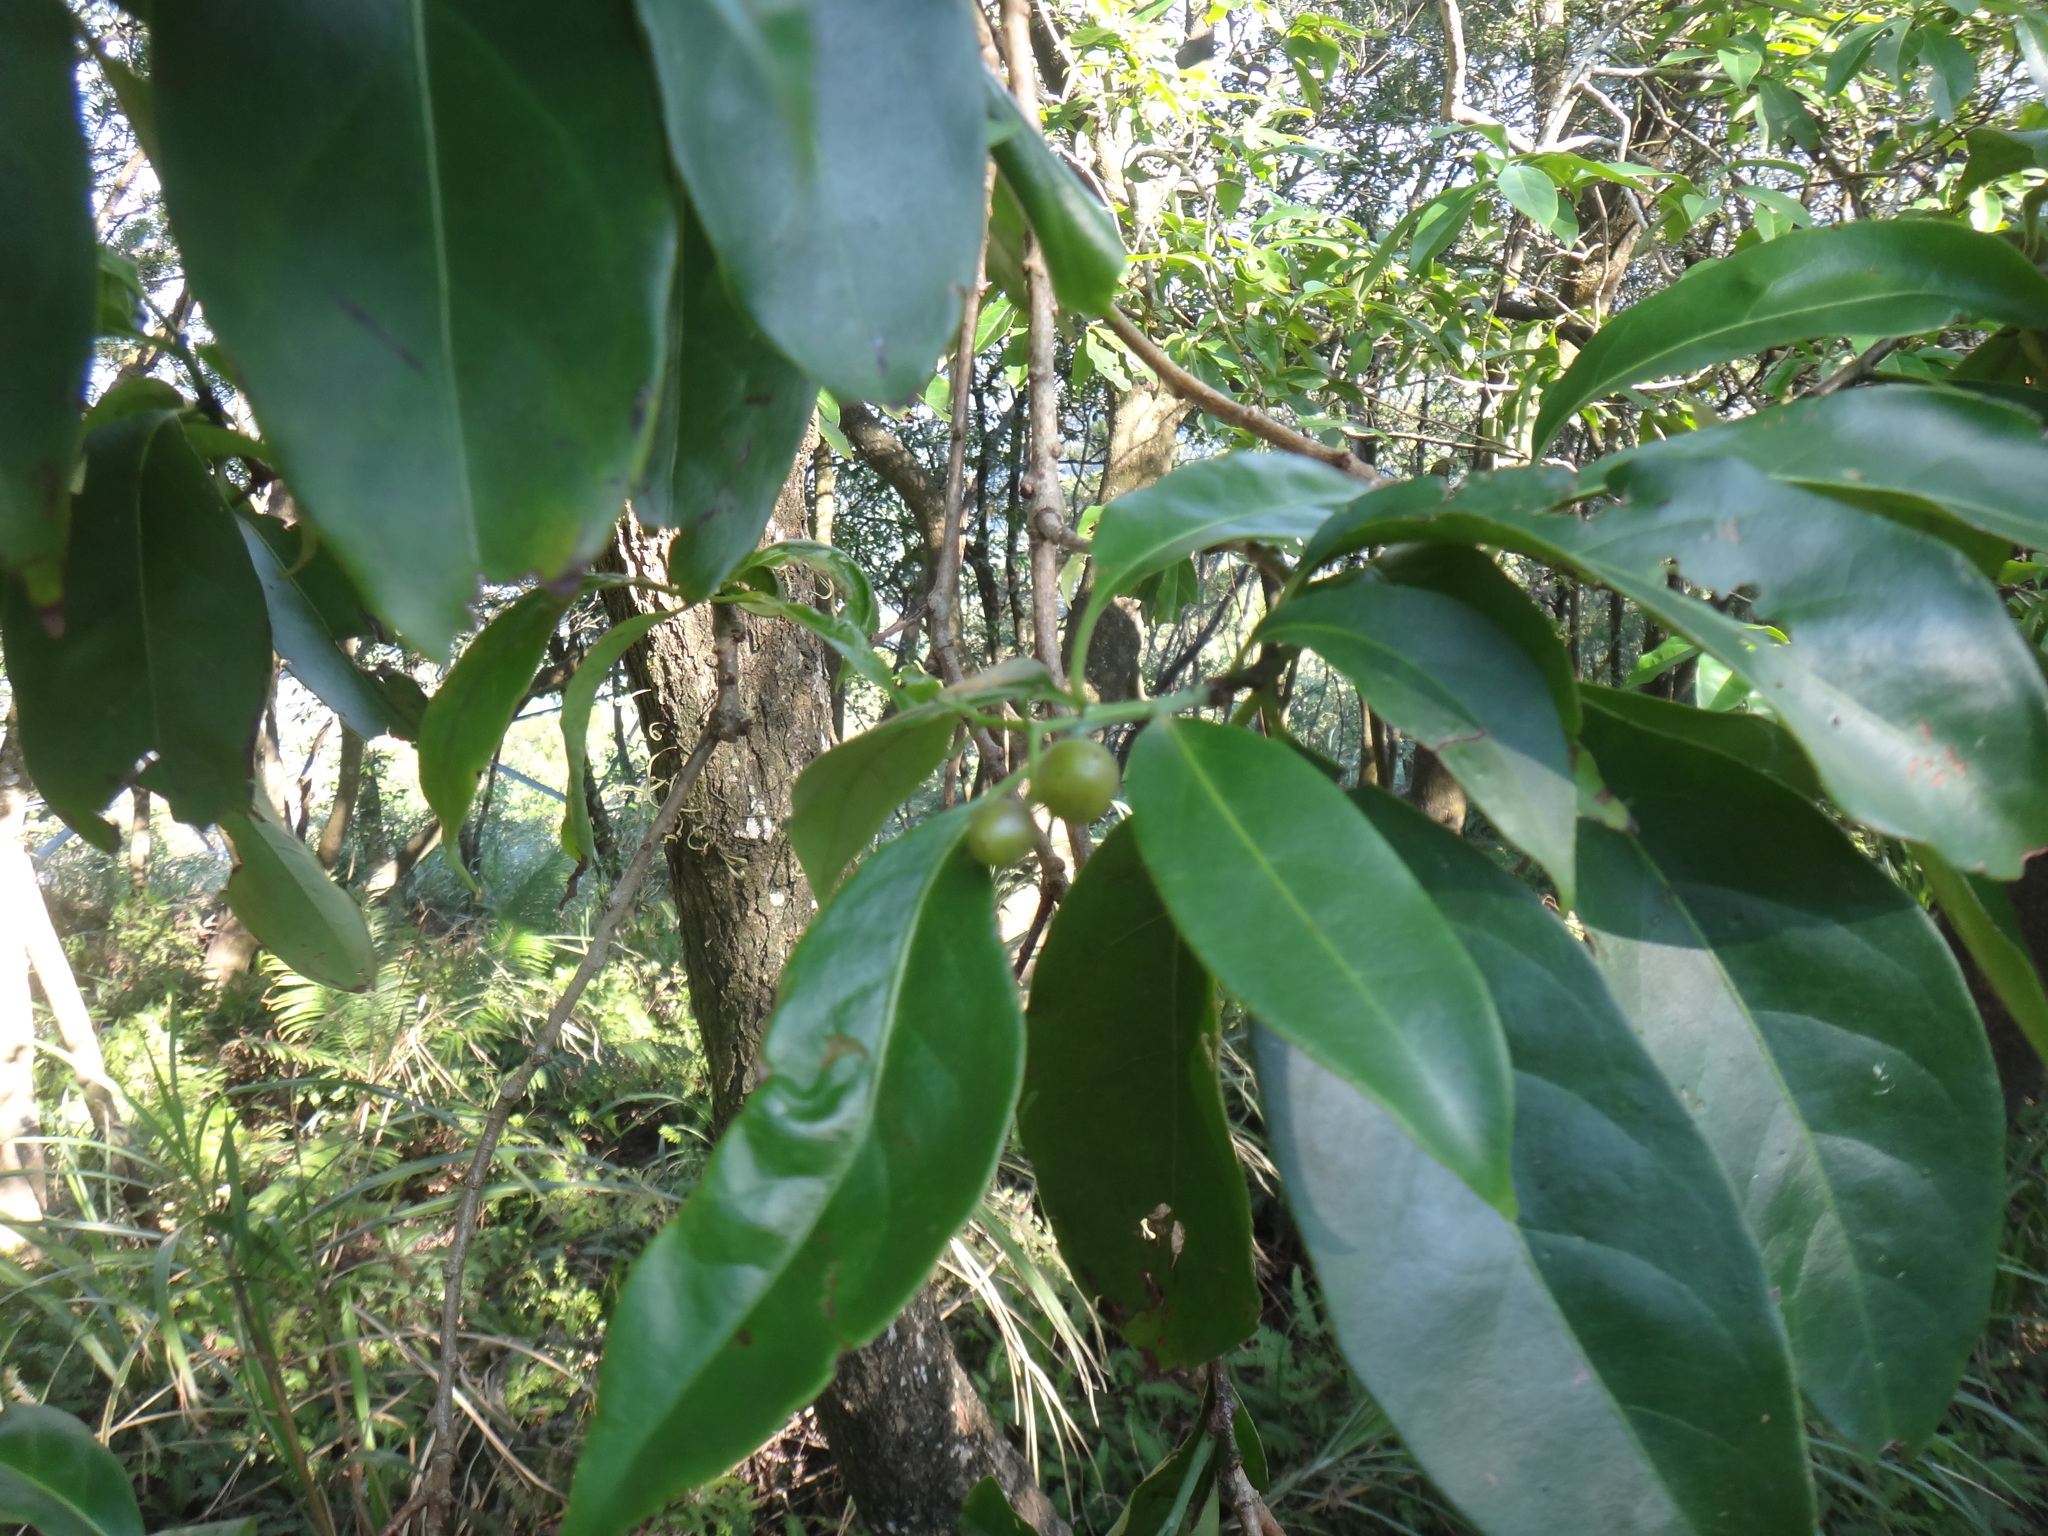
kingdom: Plantae
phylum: Tracheophyta
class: Magnoliopsida
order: Boraginales
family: Ehretiaceae
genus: Ehretia
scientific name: Ehretia longiflora
